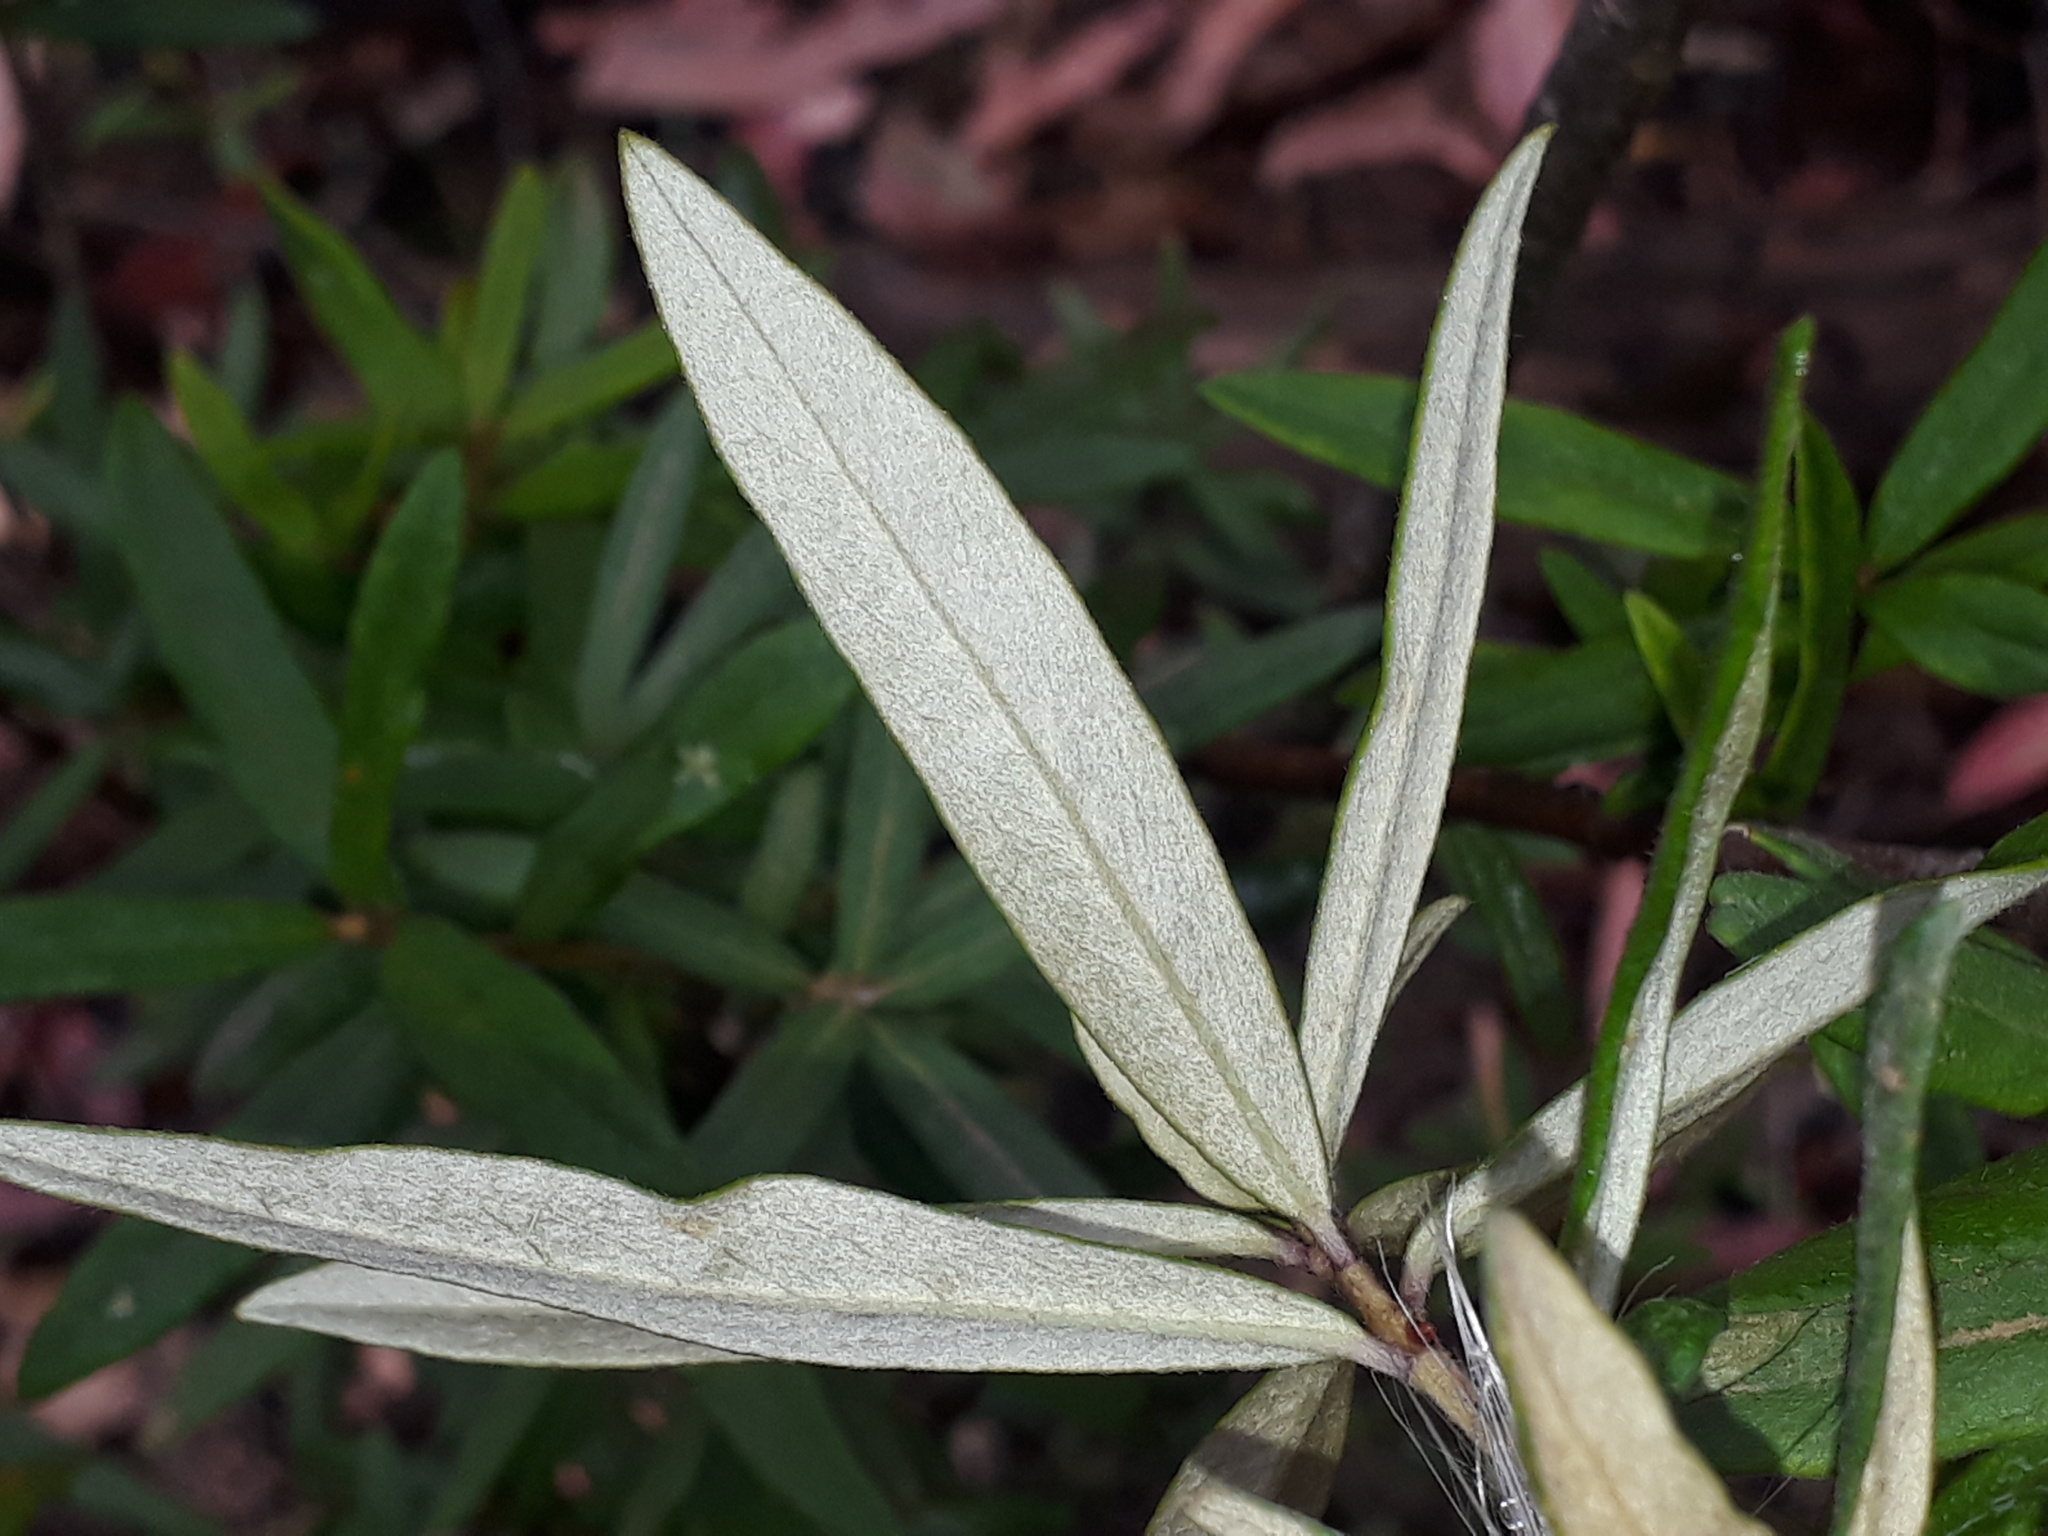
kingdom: Plantae
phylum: Tracheophyta
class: Magnoliopsida
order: Apiales
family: Pittosporaceae
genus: Pittosporum
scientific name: Pittosporum bicolor
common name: Tallowwood
